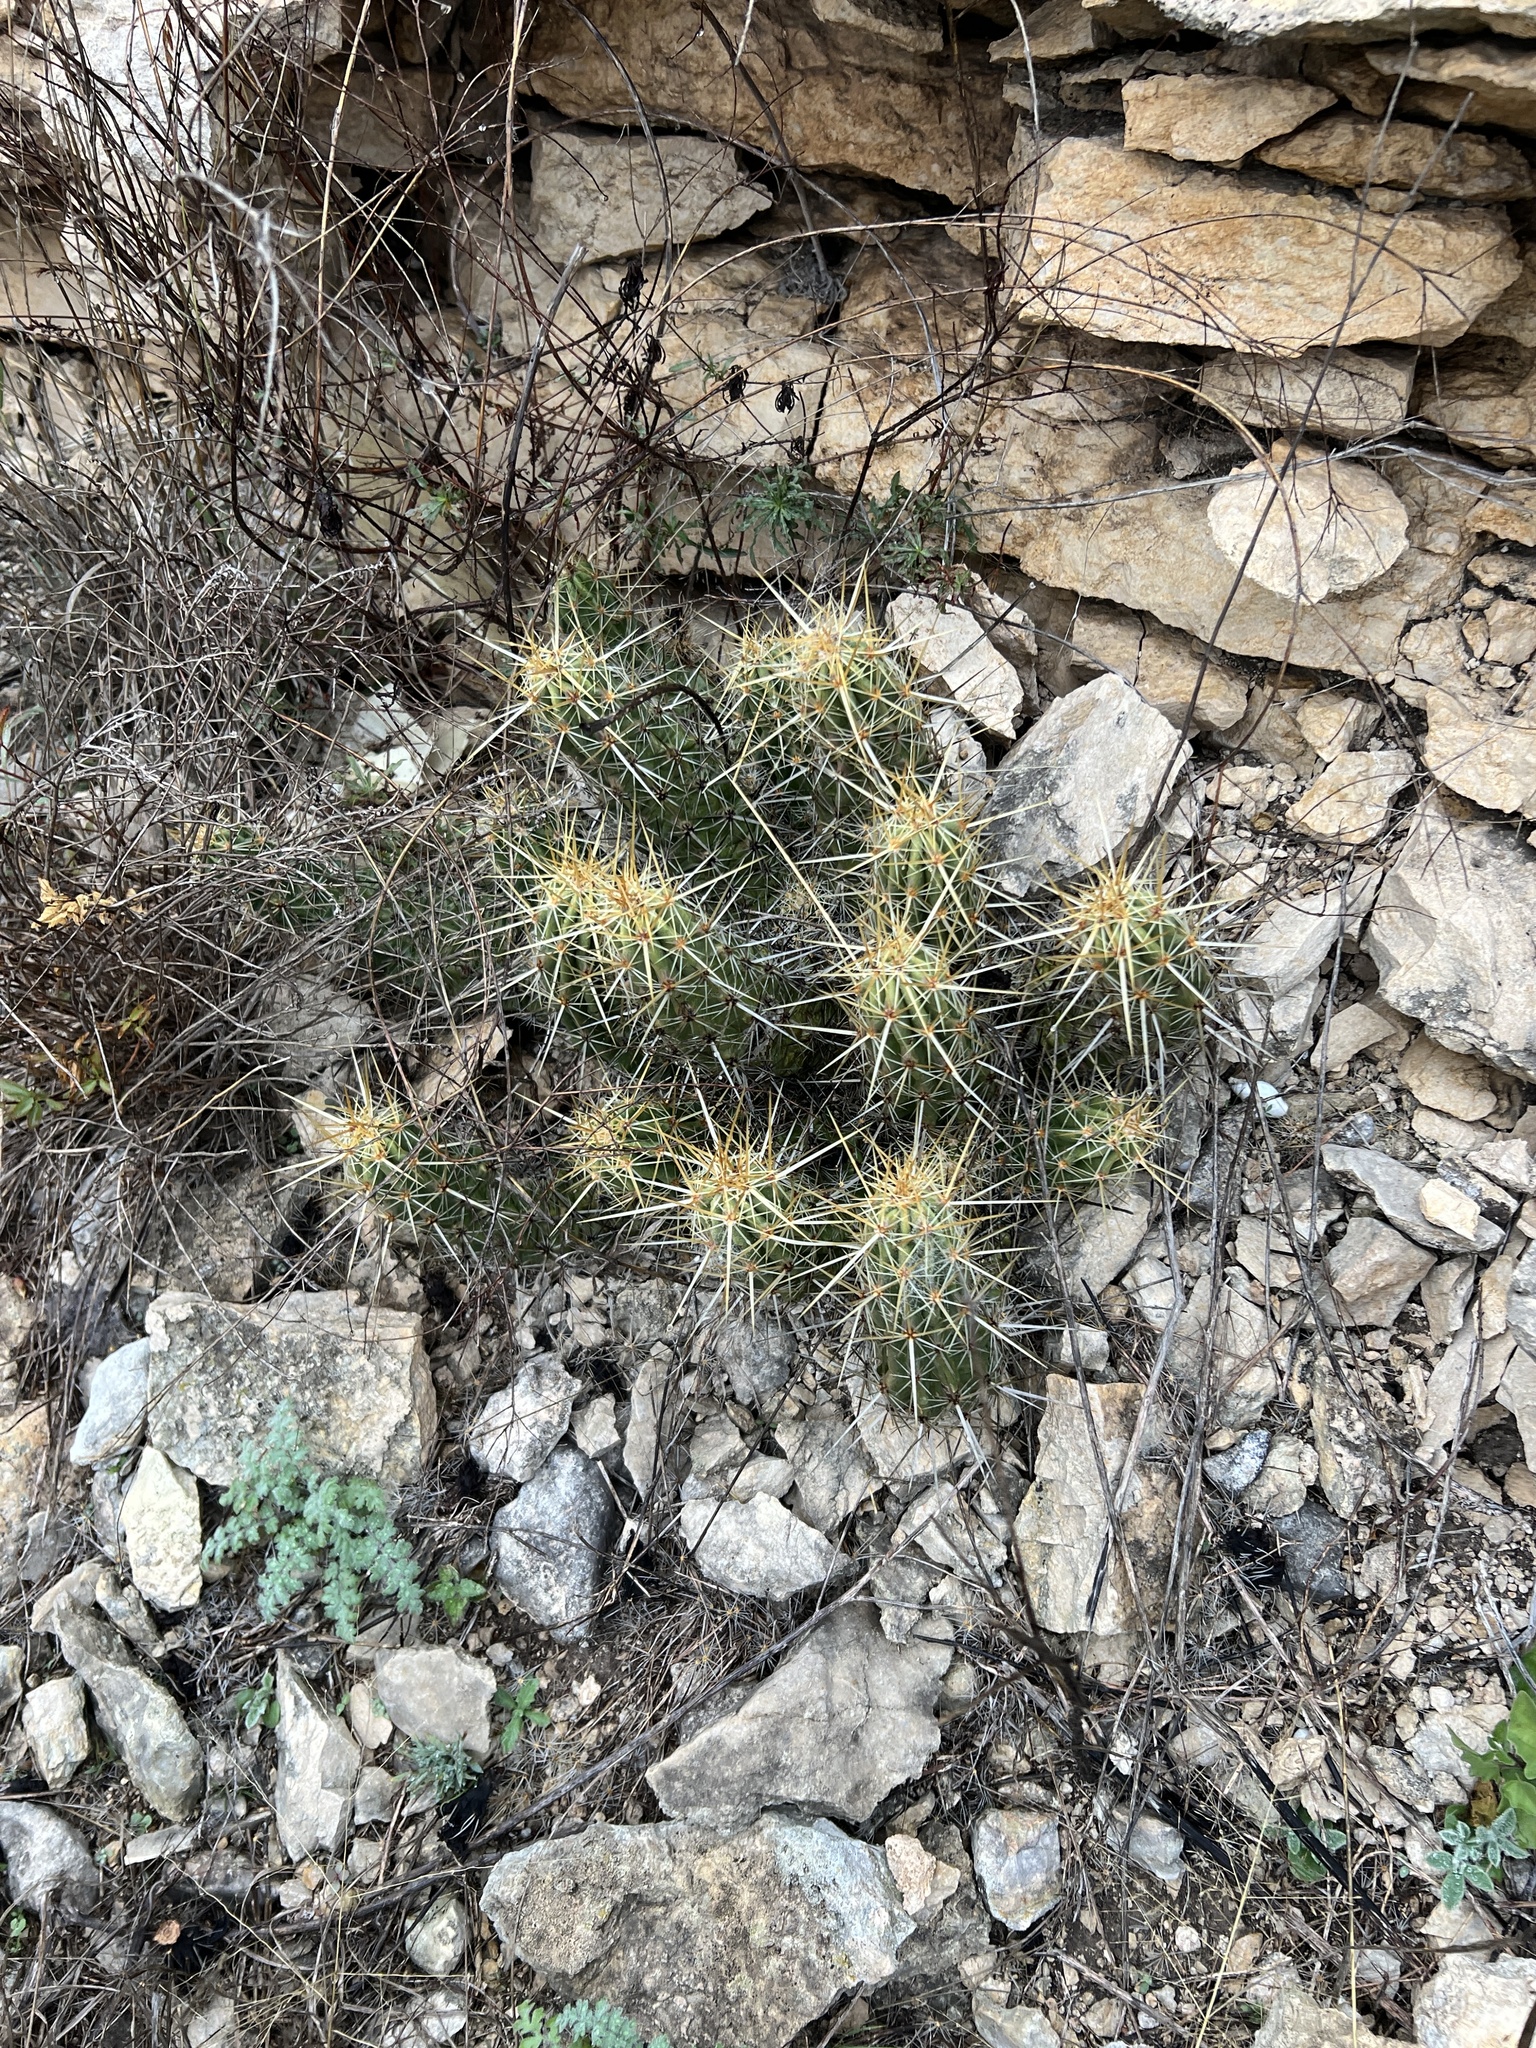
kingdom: Plantae
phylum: Tracheophyta
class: Magnoliopsida
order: Caryophyllales
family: Cactaceae
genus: Echinocereus
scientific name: Echinocereus enneacanthus
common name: Pitaya
